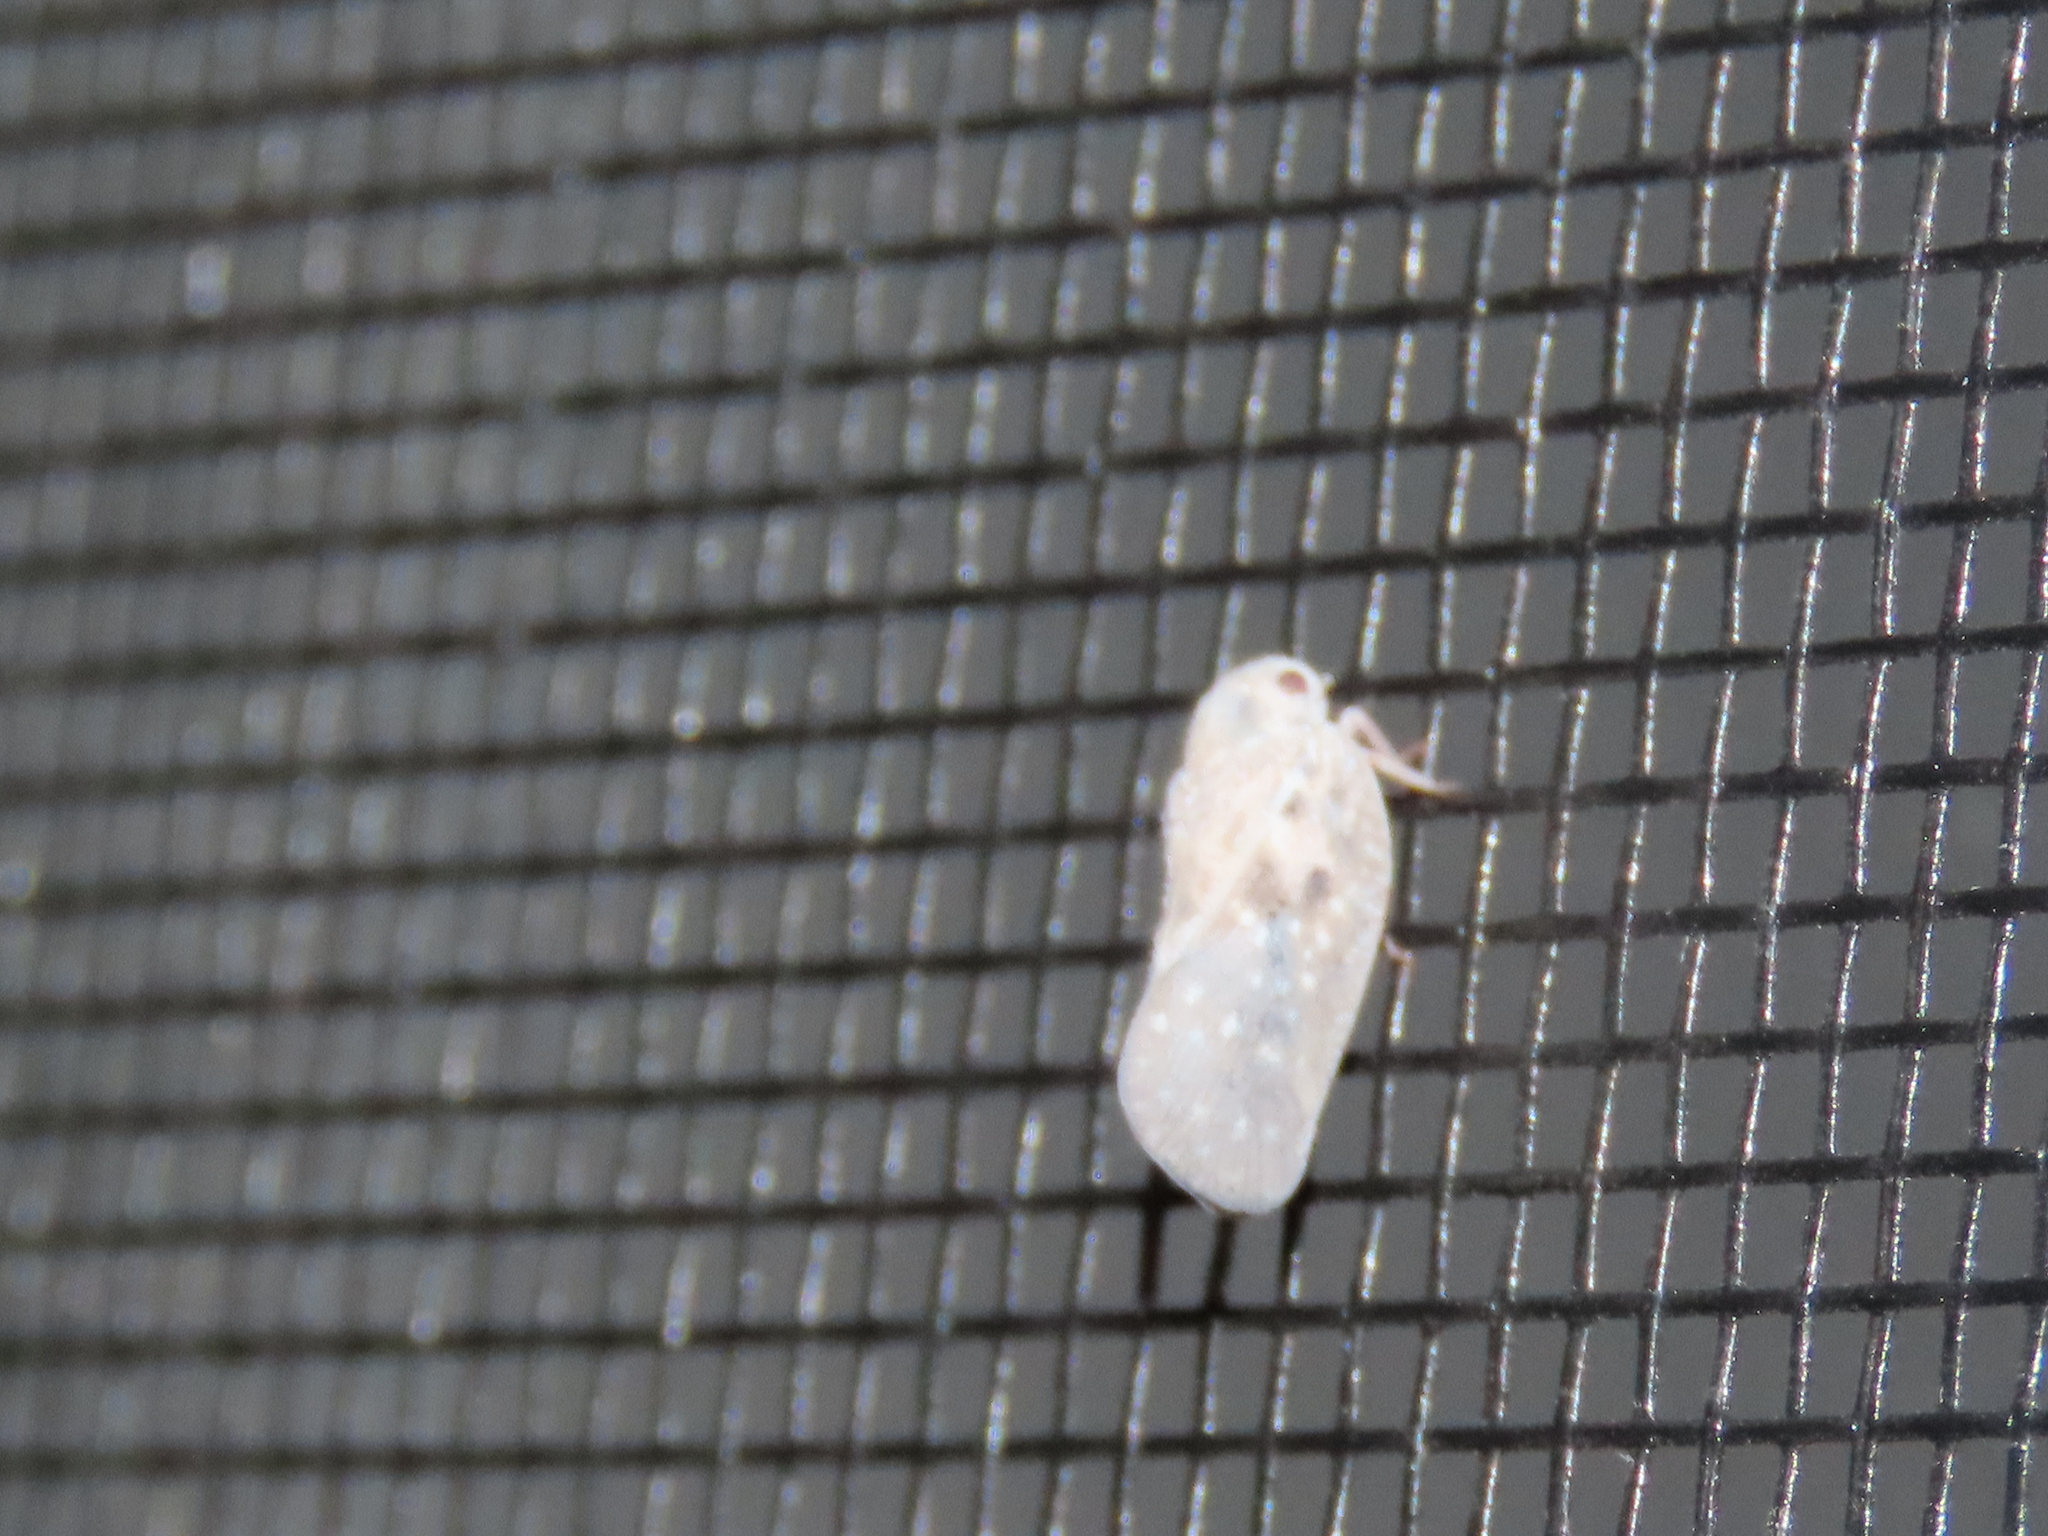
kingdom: Animalia
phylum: Arthropoda
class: Insecta
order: Hemiptera
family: Flatidae
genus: Metcalfa
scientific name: Metcalfa pruinosa
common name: Citrus flatid planthopper
